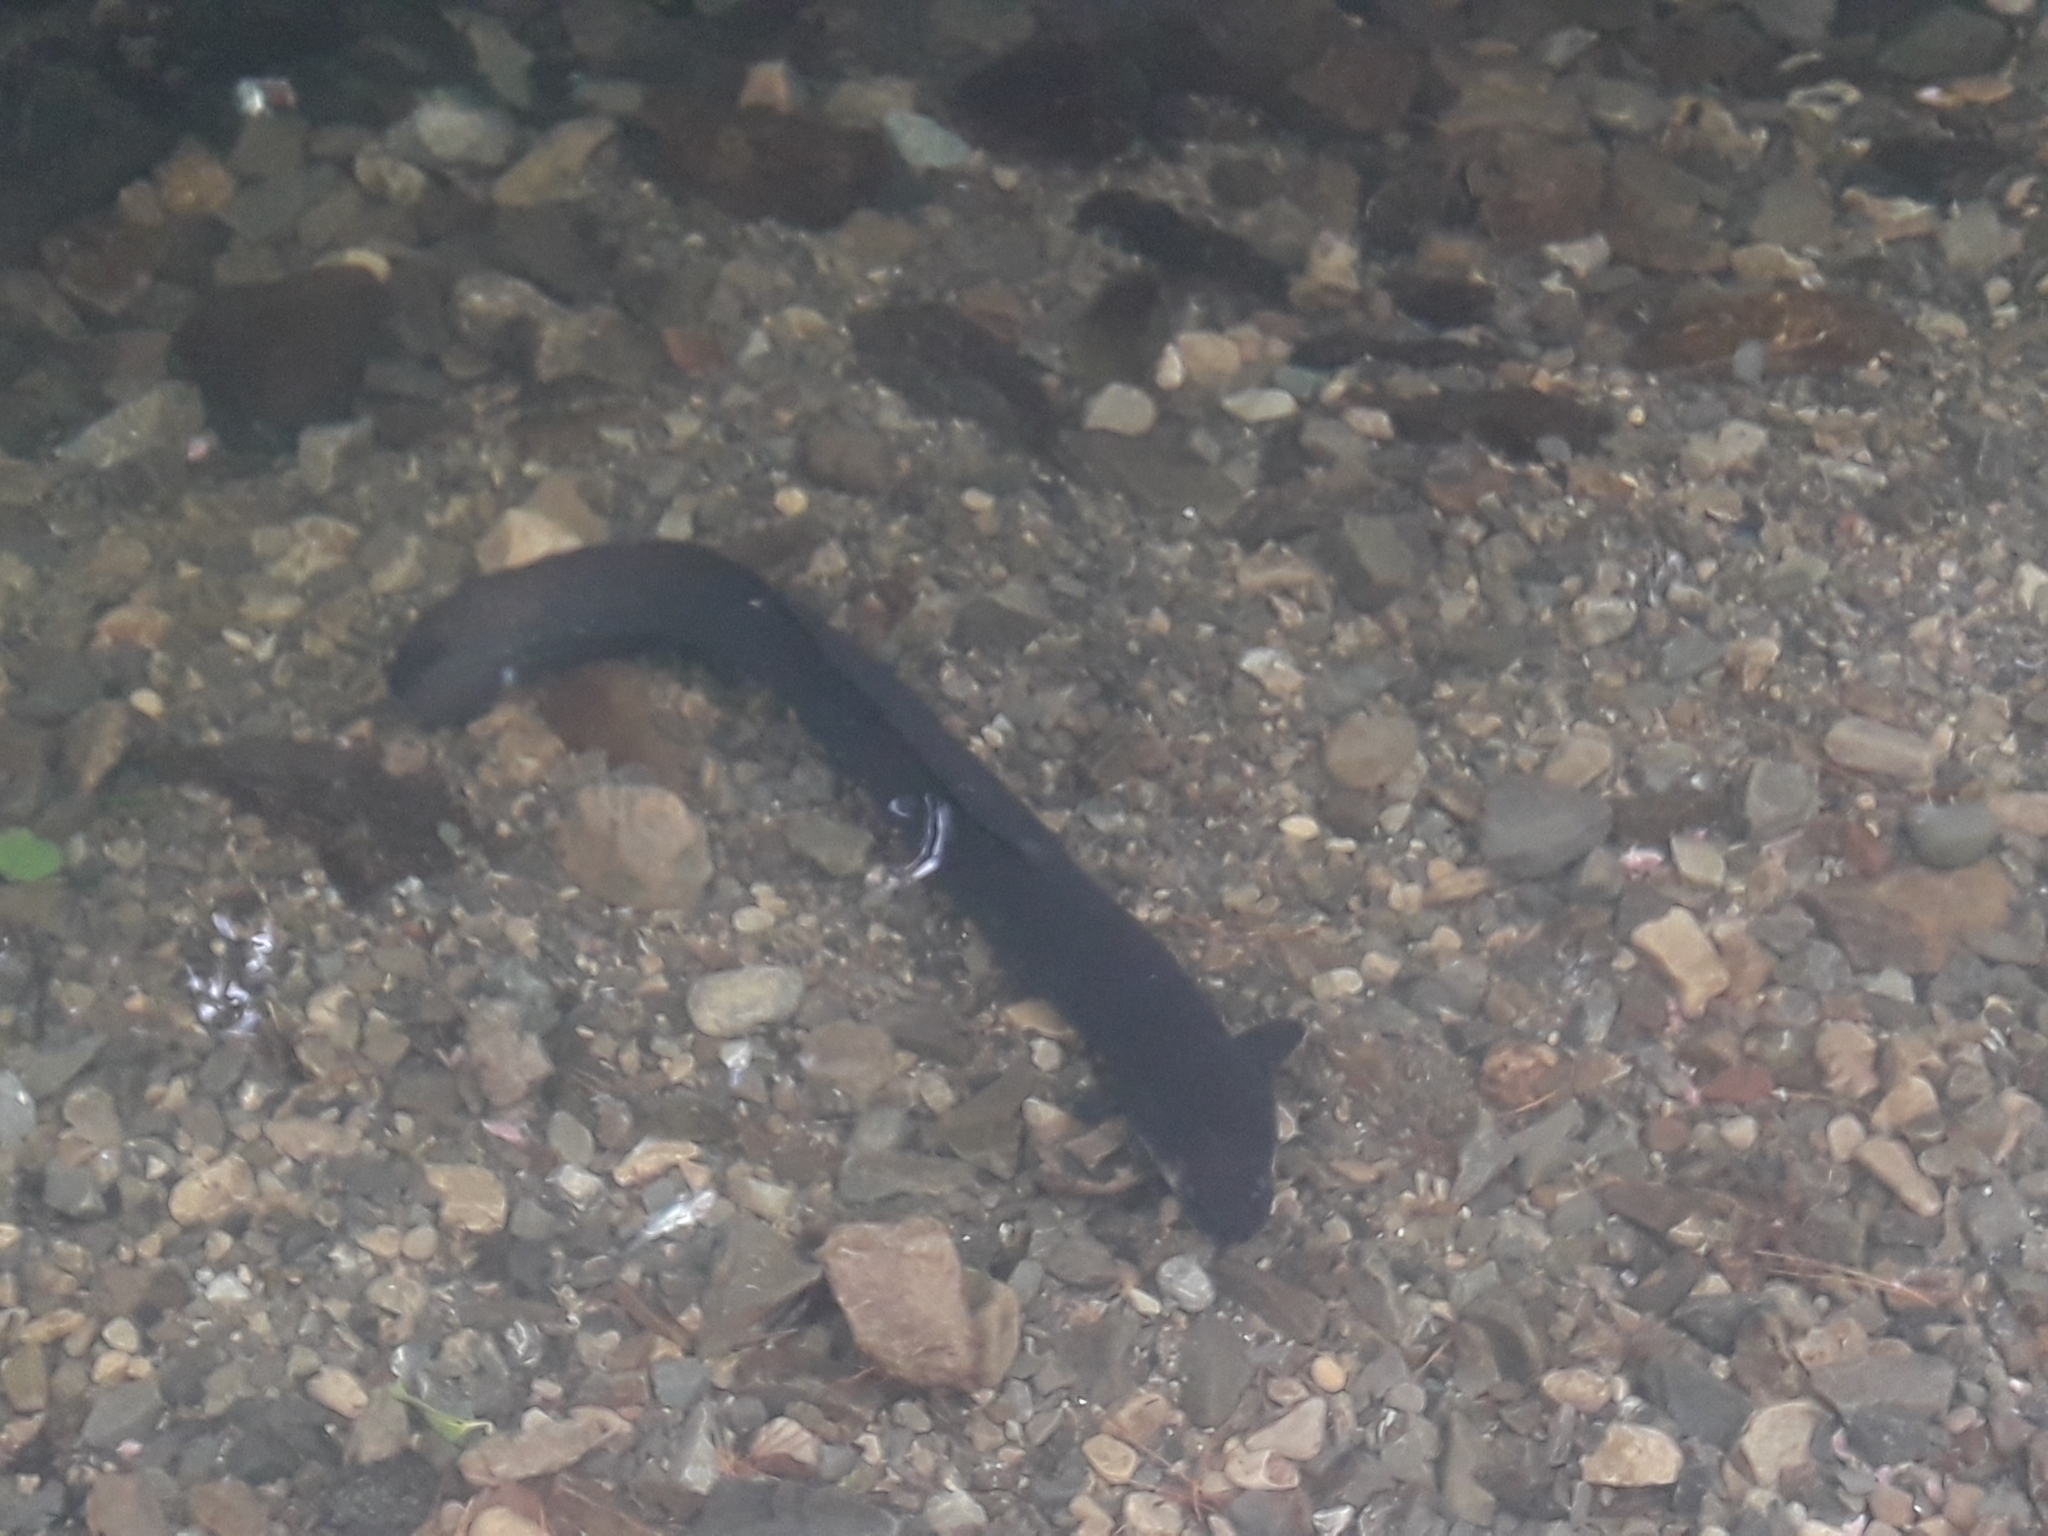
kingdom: Animalia
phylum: Chordata
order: Anguilliformes
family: Anguillidae
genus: Anguilla
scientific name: Anguilla dieffenbachii
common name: New zealand longfin eel
